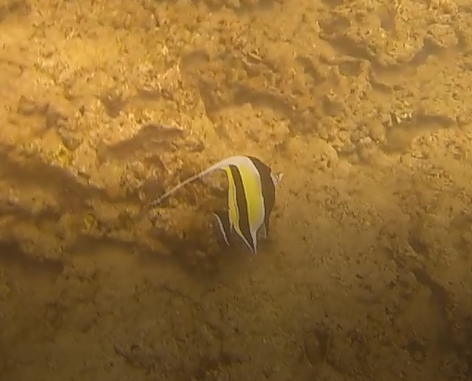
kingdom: Animalia
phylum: Chordata
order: Perciformes
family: Zanclidae
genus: Zanclus
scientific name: Zanclus cornutus
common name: Moorish idol
